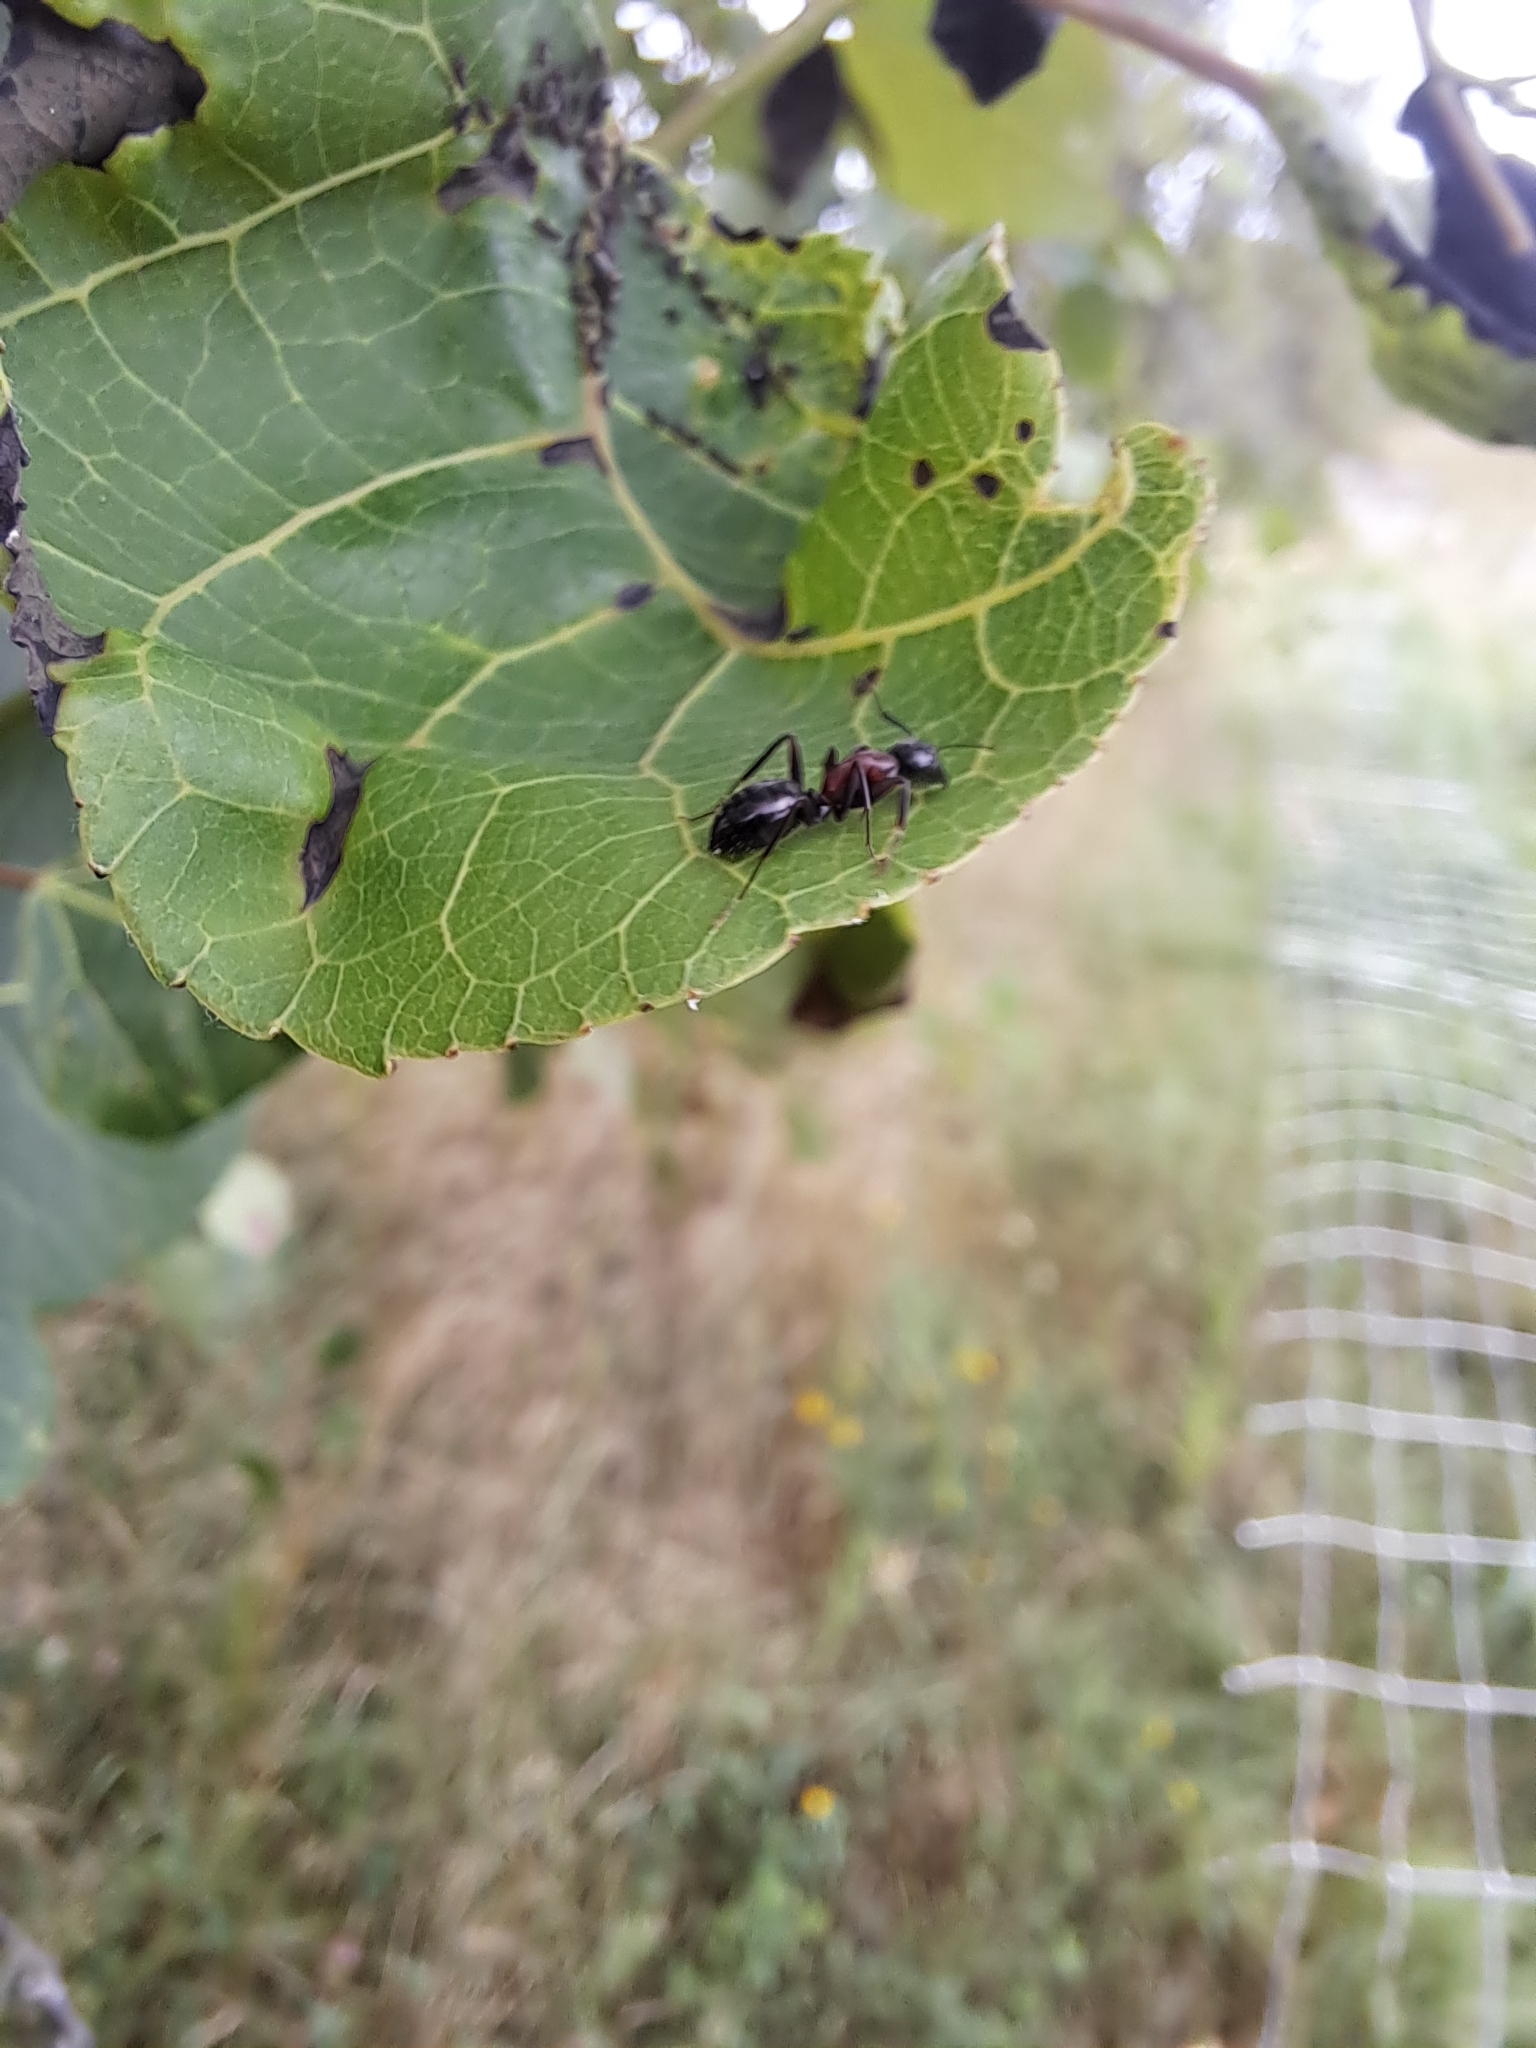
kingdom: Animalia
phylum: Arthropoda
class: Insecta
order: Hymenoptera
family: Formicidae
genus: Camponotus
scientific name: Camponotus novaeboracensis
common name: New york carpenter ant
